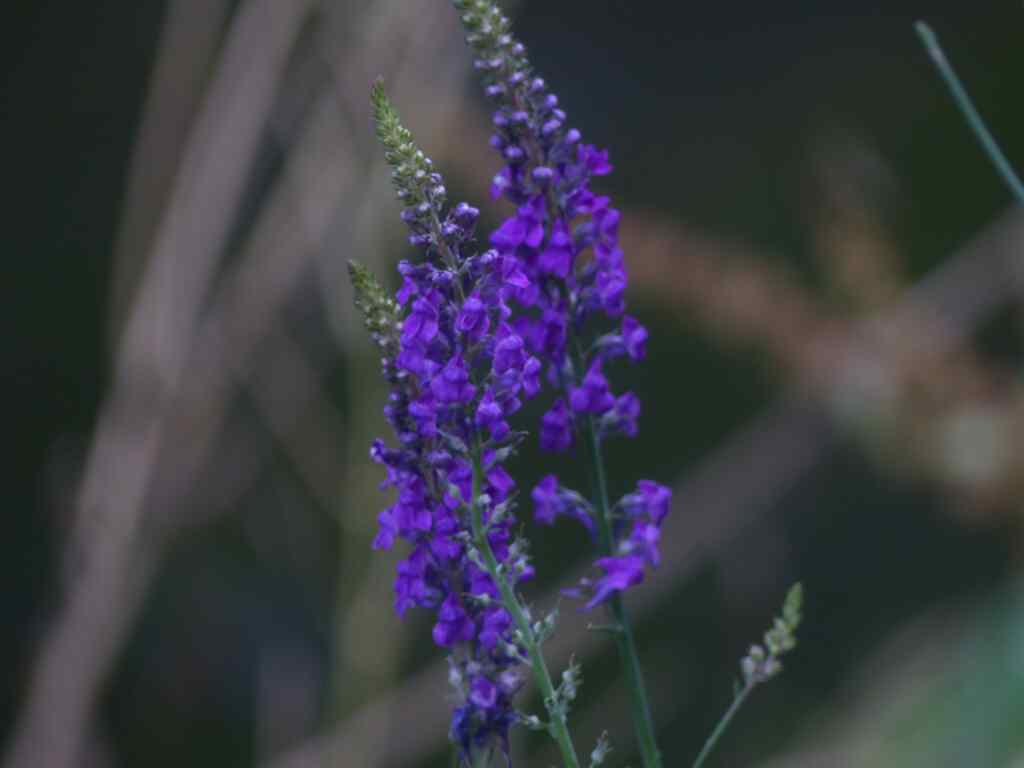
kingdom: Plantae
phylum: Tracheophyta
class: Magnoliopsida
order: Lamiales
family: Plantaginaceae
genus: Linaria
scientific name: Linaria purpurea
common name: Purple toadflax
